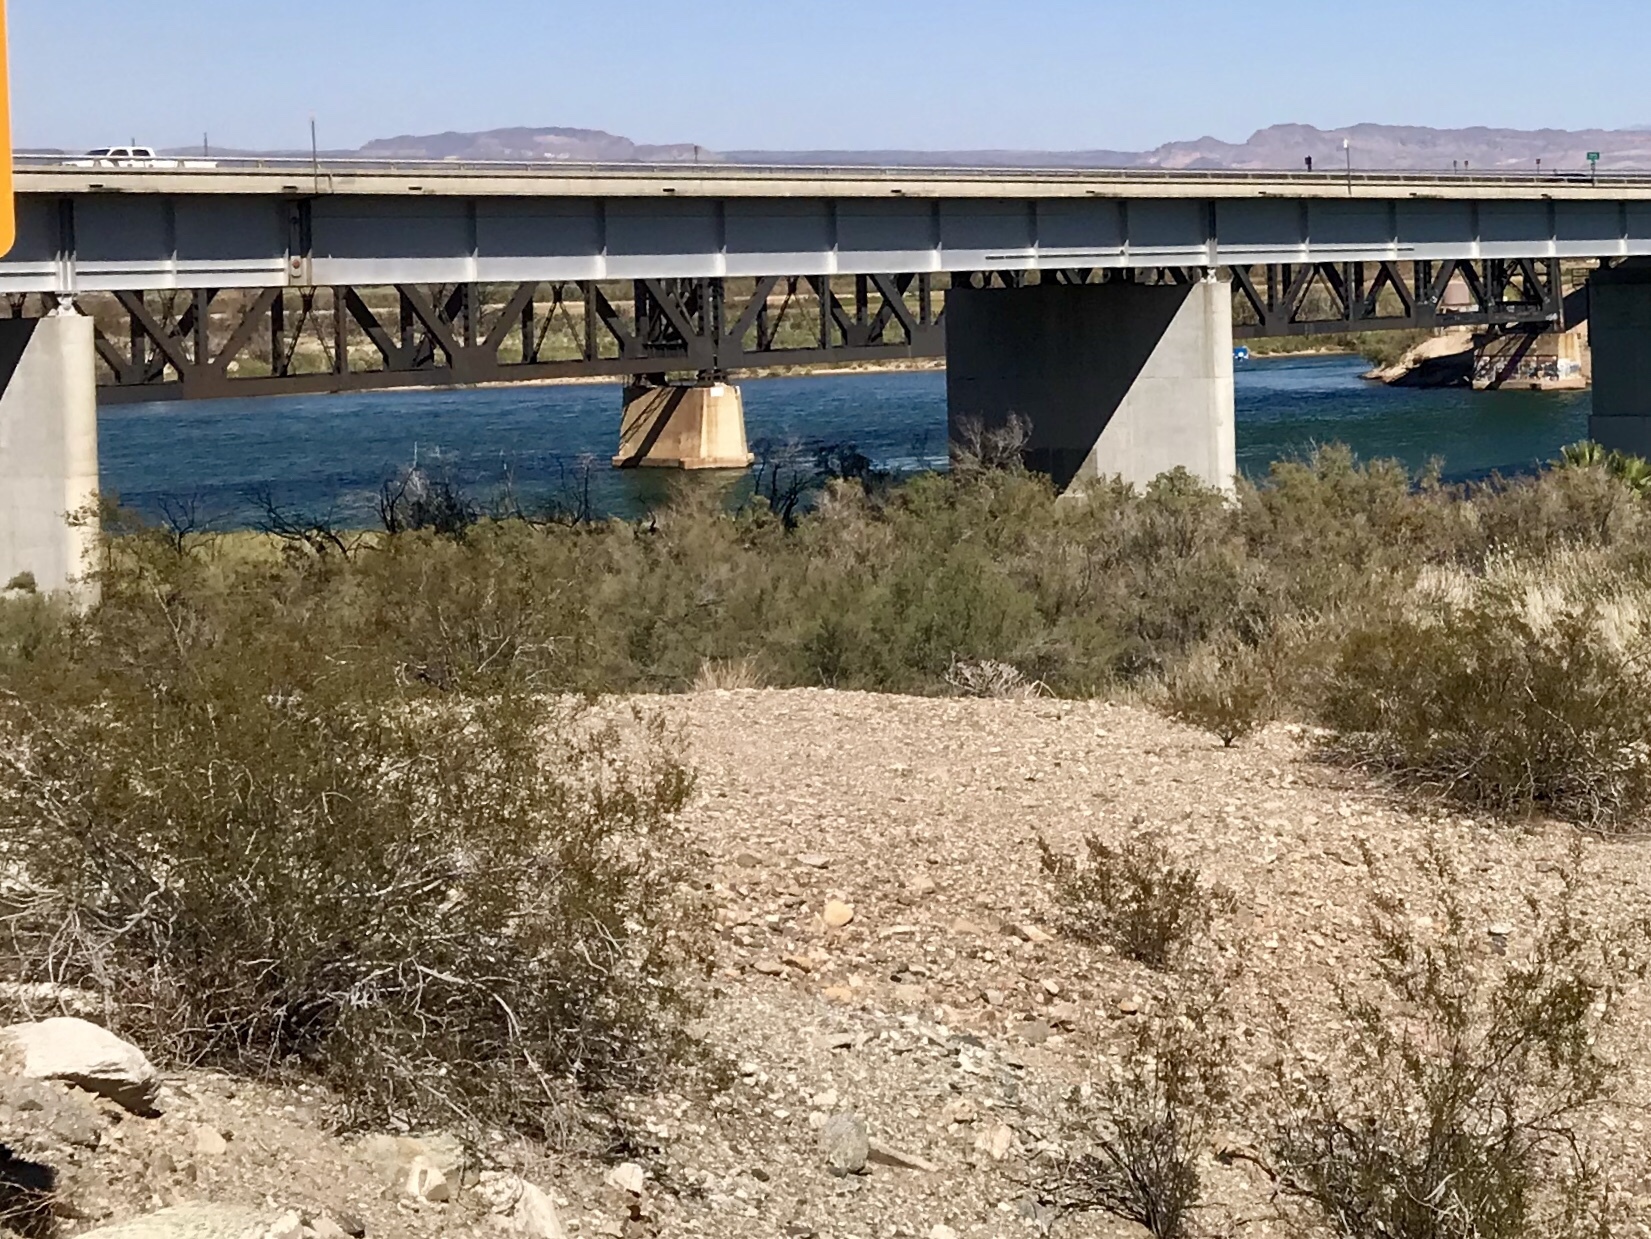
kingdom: Plantae
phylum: Tracheophyta
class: Magnoliopsida
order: Zygophyllales
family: Zygophyllaceae
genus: Larrea
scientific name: Larrea tridentata
